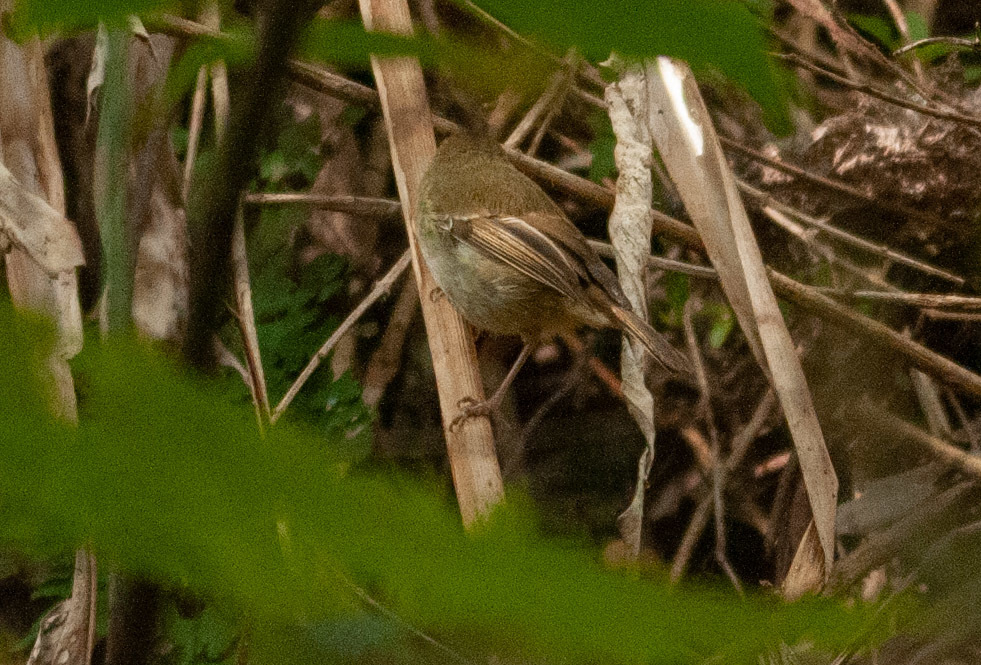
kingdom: Animalia
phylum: Chordata
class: Aves
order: Passeriformes
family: Acanthizidae
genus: Sericornis
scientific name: Sericornis magnirostra
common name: Large-billed scrubwren
